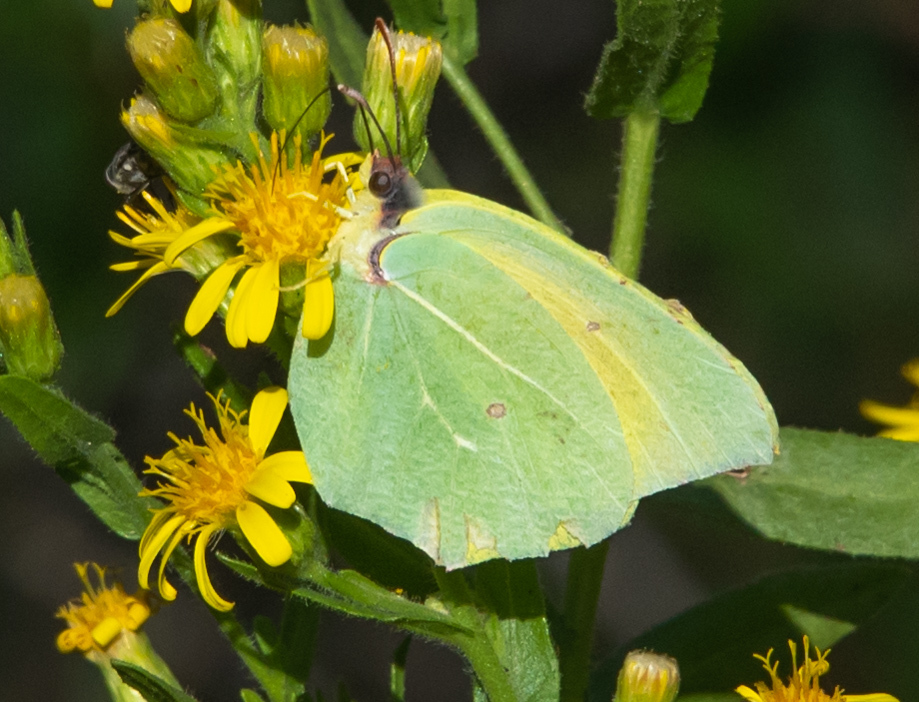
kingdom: Animalia
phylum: Arthropoda
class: Insecta
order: Lepidoptera
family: Pieridae
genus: Gonepteryx
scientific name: Gonepteryx cleopatra
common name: Cleopatra
